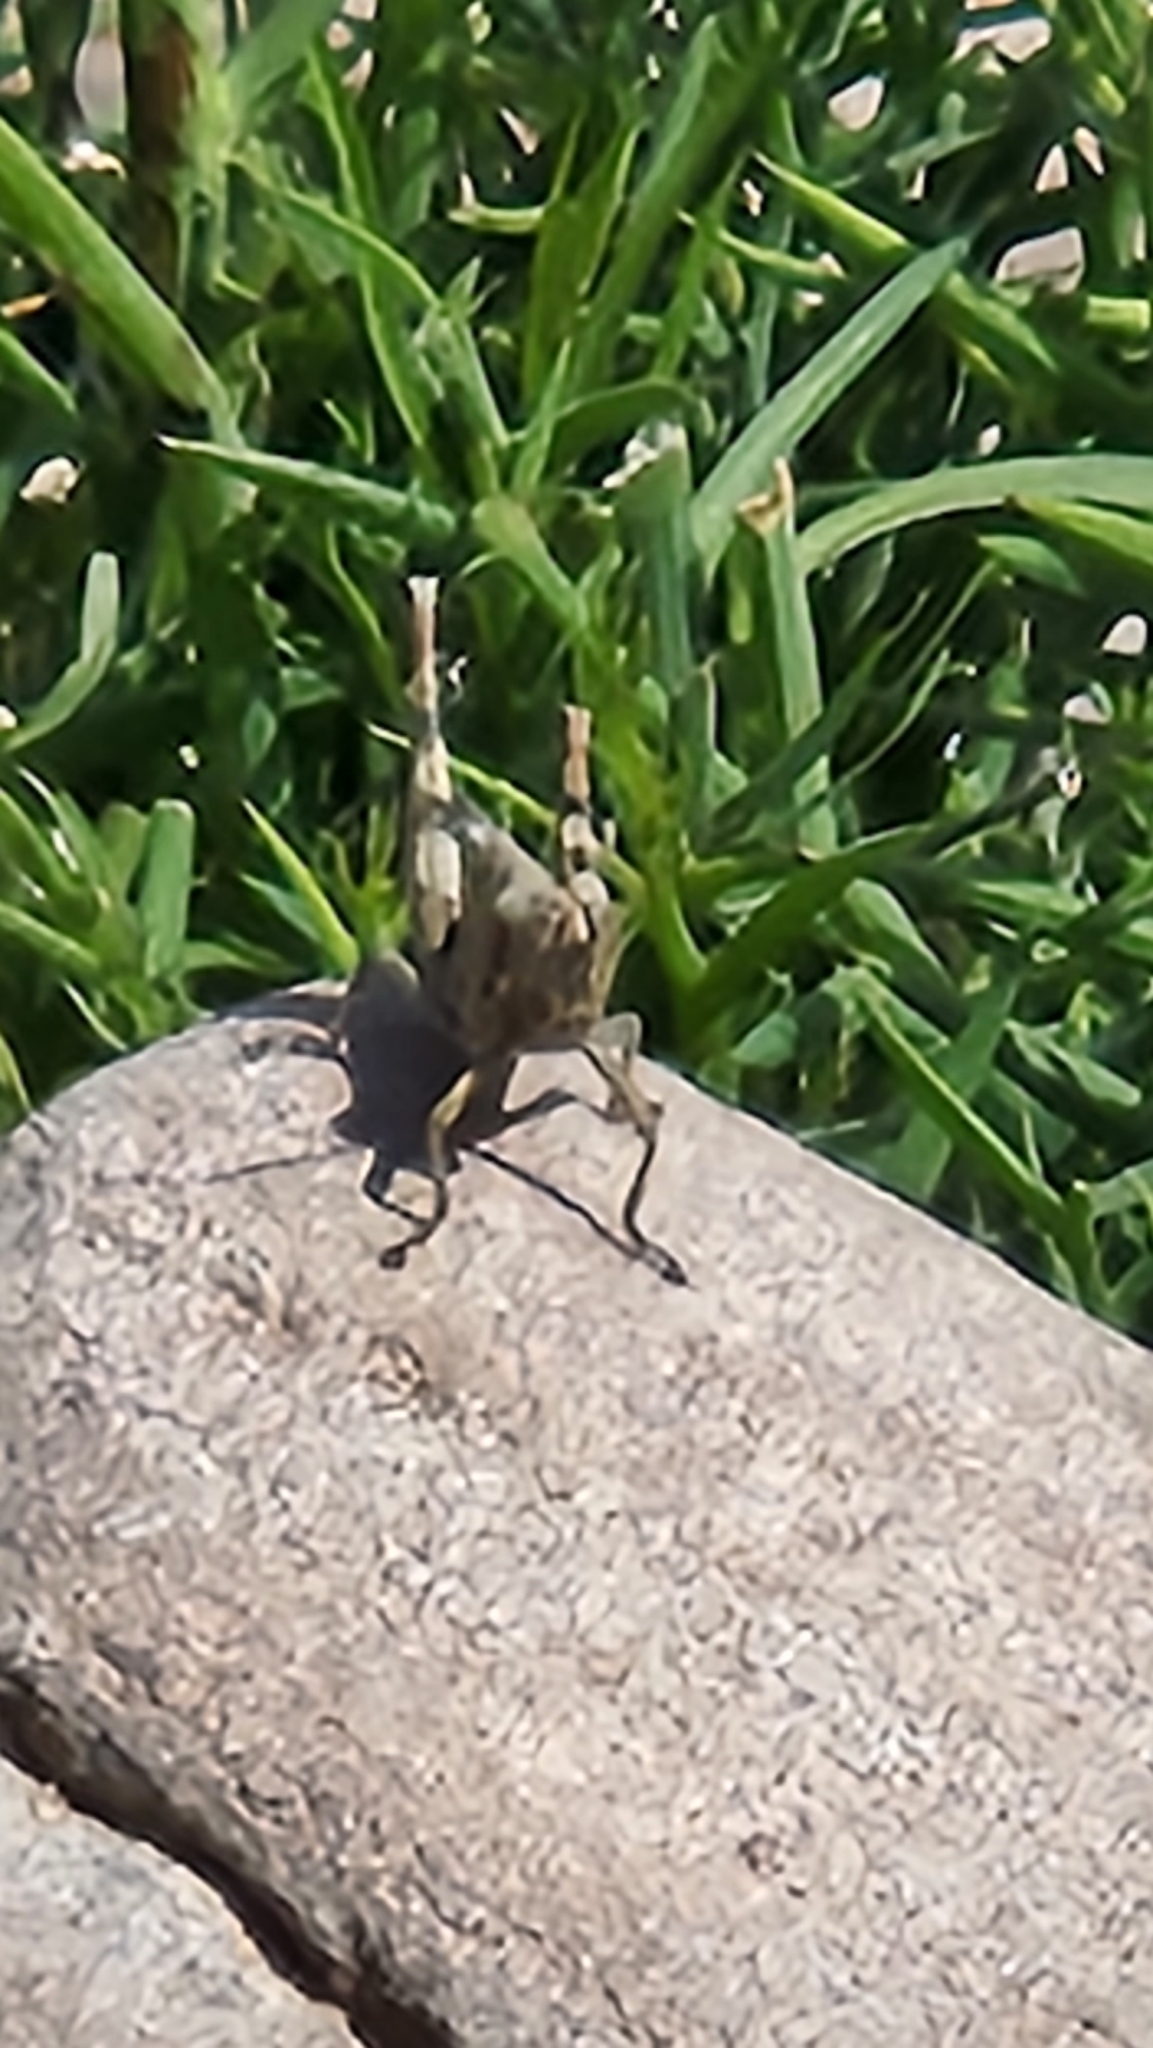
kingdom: Animalia
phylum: Arthropoda
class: Insecta
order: Orthoptera
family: Acrididae
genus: Schistocerca
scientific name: Schistocerca nitens
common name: Vagrant grasshopper
